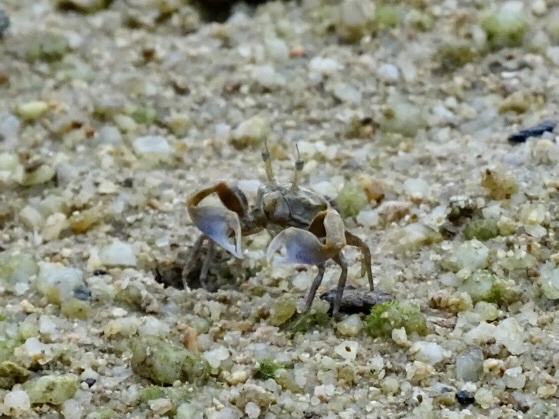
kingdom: Animalia
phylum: Arthropoda
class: Malacostraca
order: Decapoda
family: Dotillidae
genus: Tmethypocoelis
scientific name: Tmethypocoelis ceratophora
